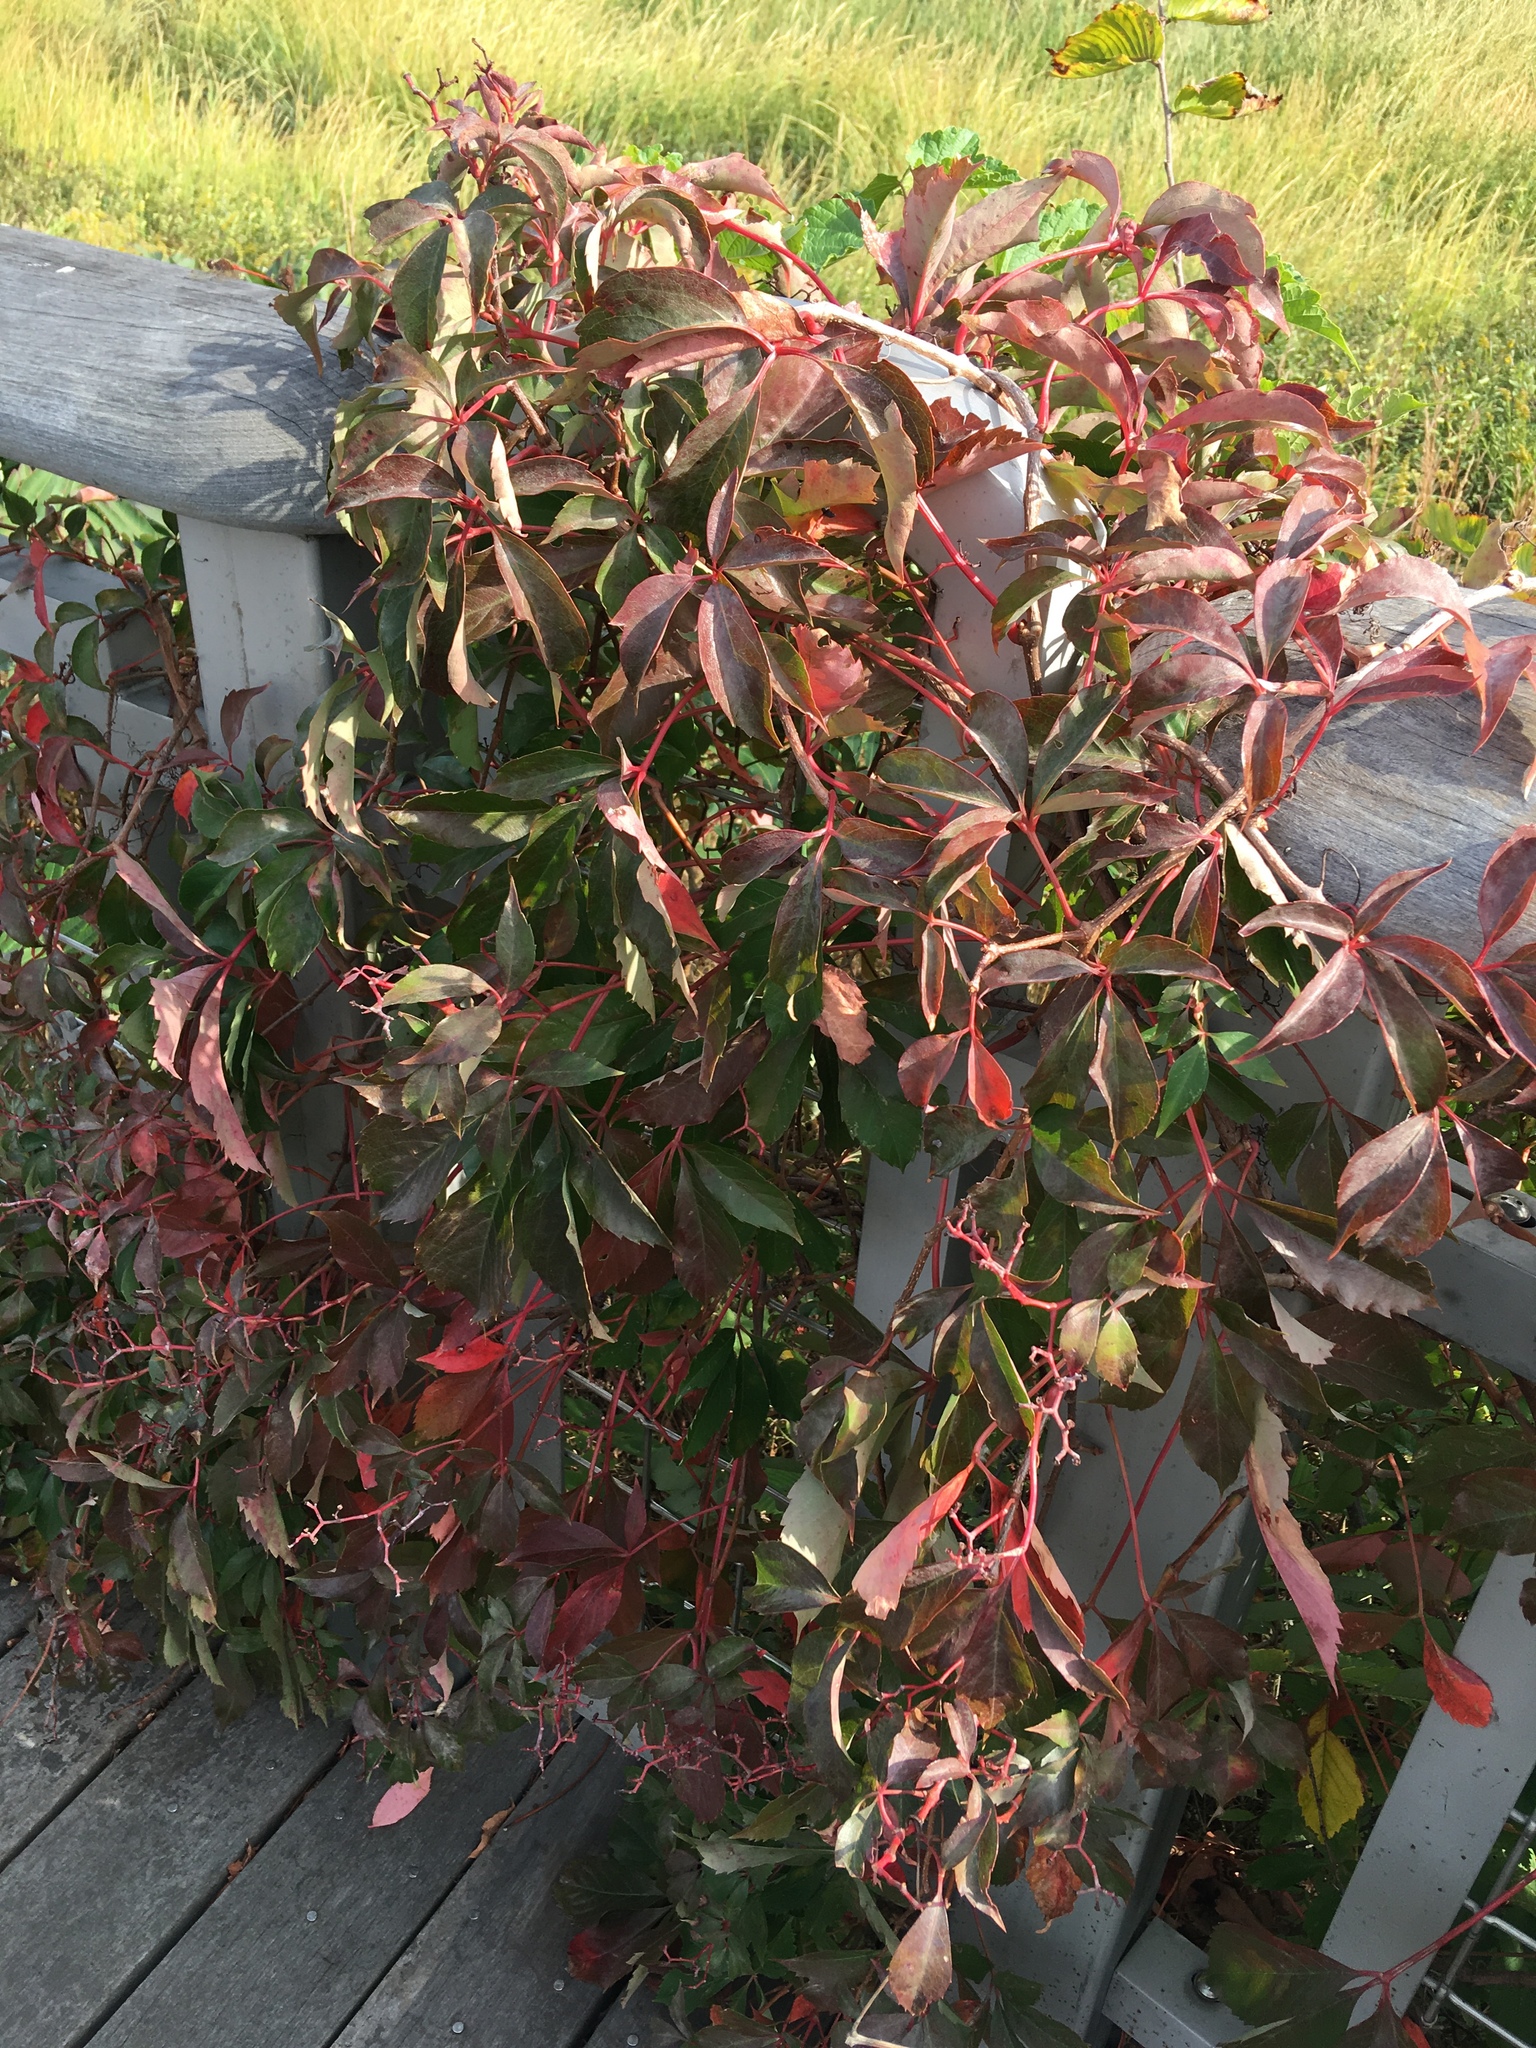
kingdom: Plantae
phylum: Tracheophyta
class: Magnoliopsida
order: Vitales
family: Vitaceae
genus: Parthenocissus
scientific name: Parthenocissus quinquefolia
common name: Virginia-creeper
